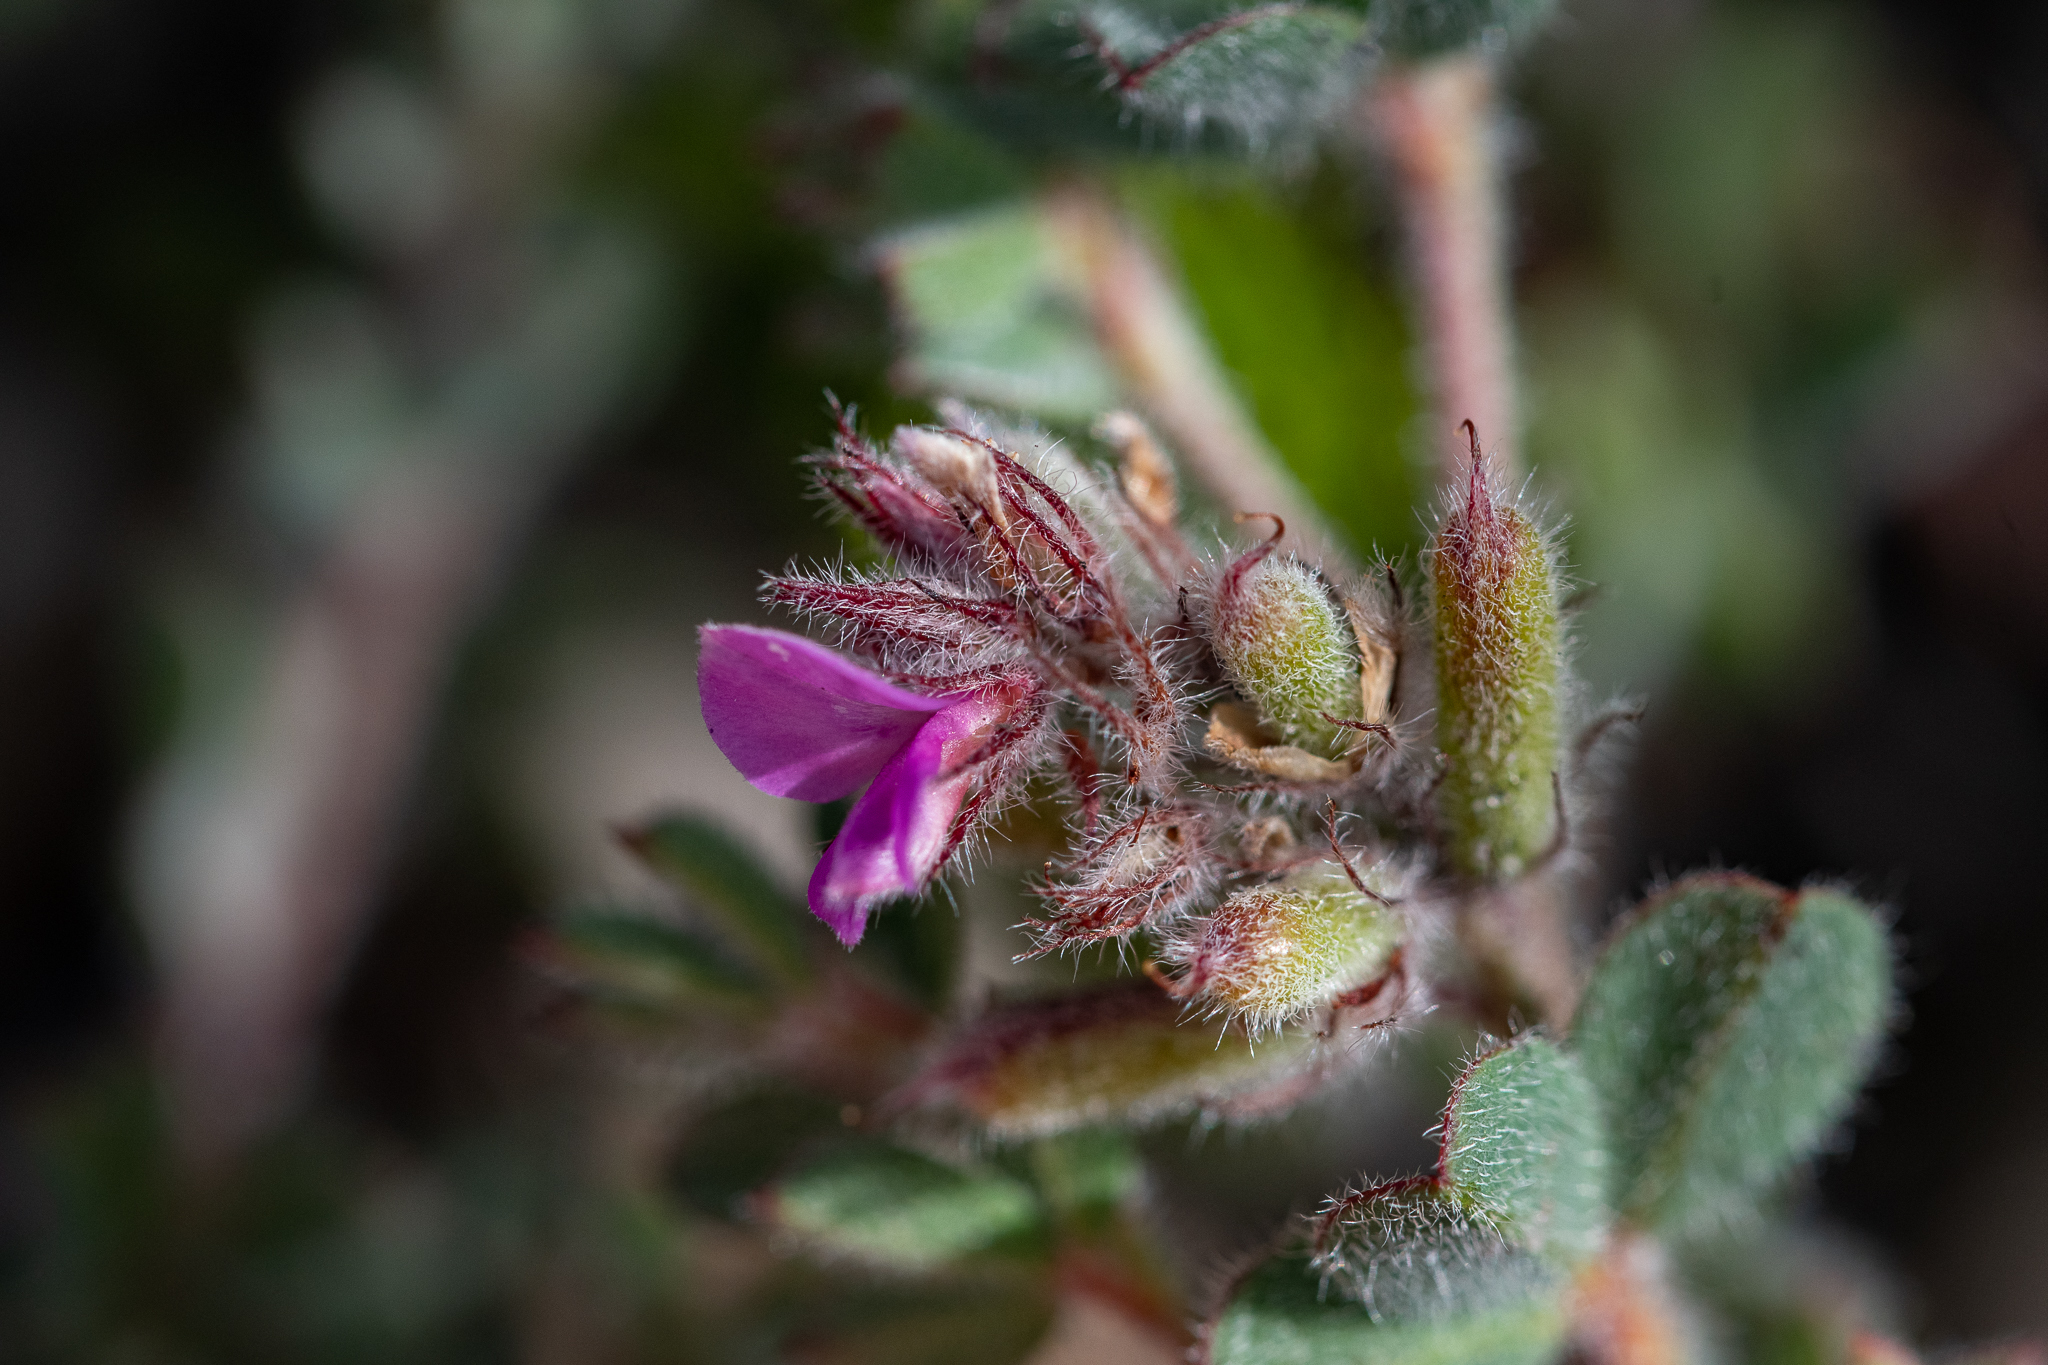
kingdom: Plantae
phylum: Tracheophyta
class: Magnoliopsida
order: Fabales
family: Fabaceae
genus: Indigofera
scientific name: Indigofera glomerata
